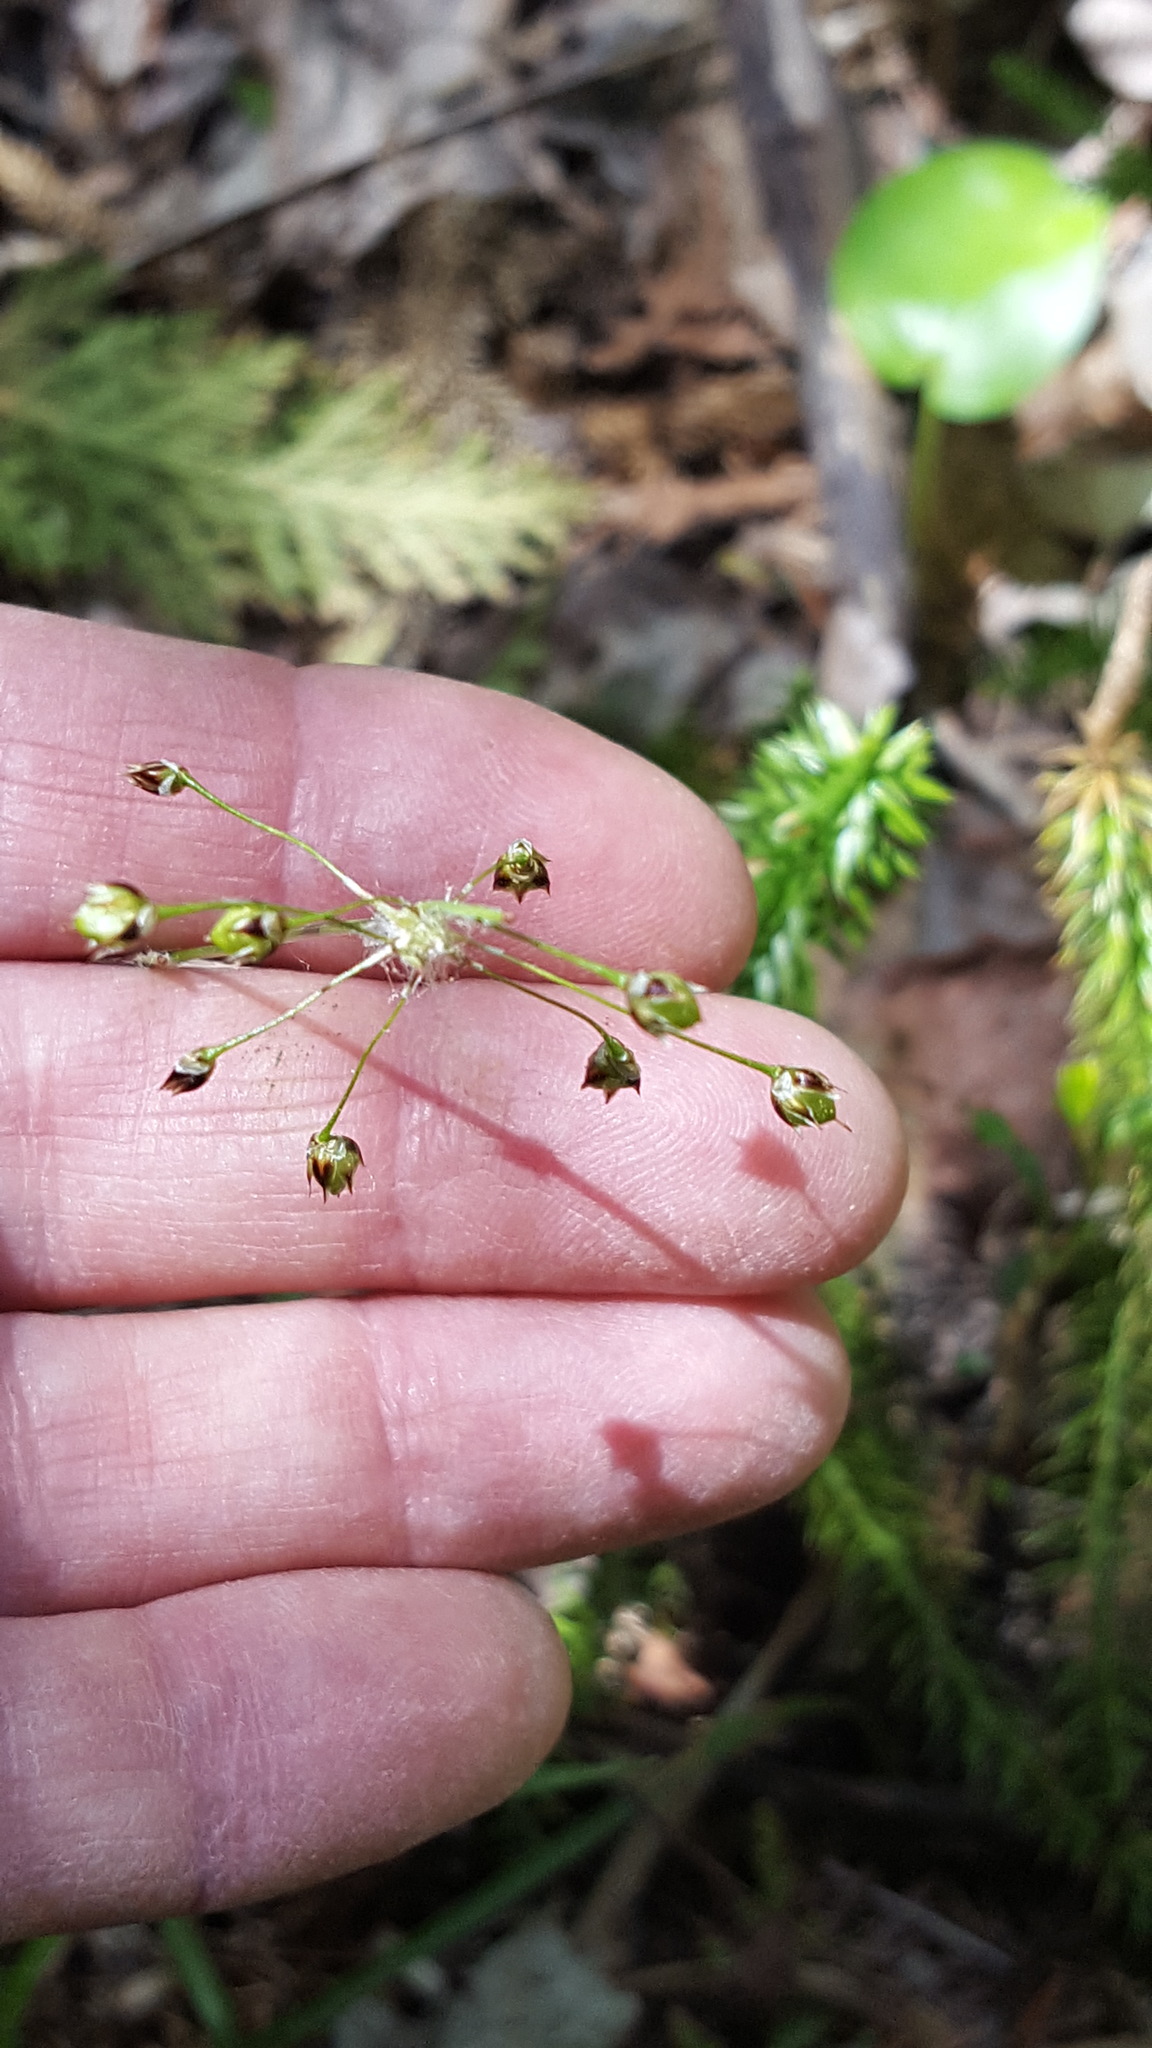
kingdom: Plantae
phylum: Tracheophyta
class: Liliopsida
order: Poales
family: Juncaceae
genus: Luzula
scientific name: Luzula acuminata
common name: Hairy woodrush
